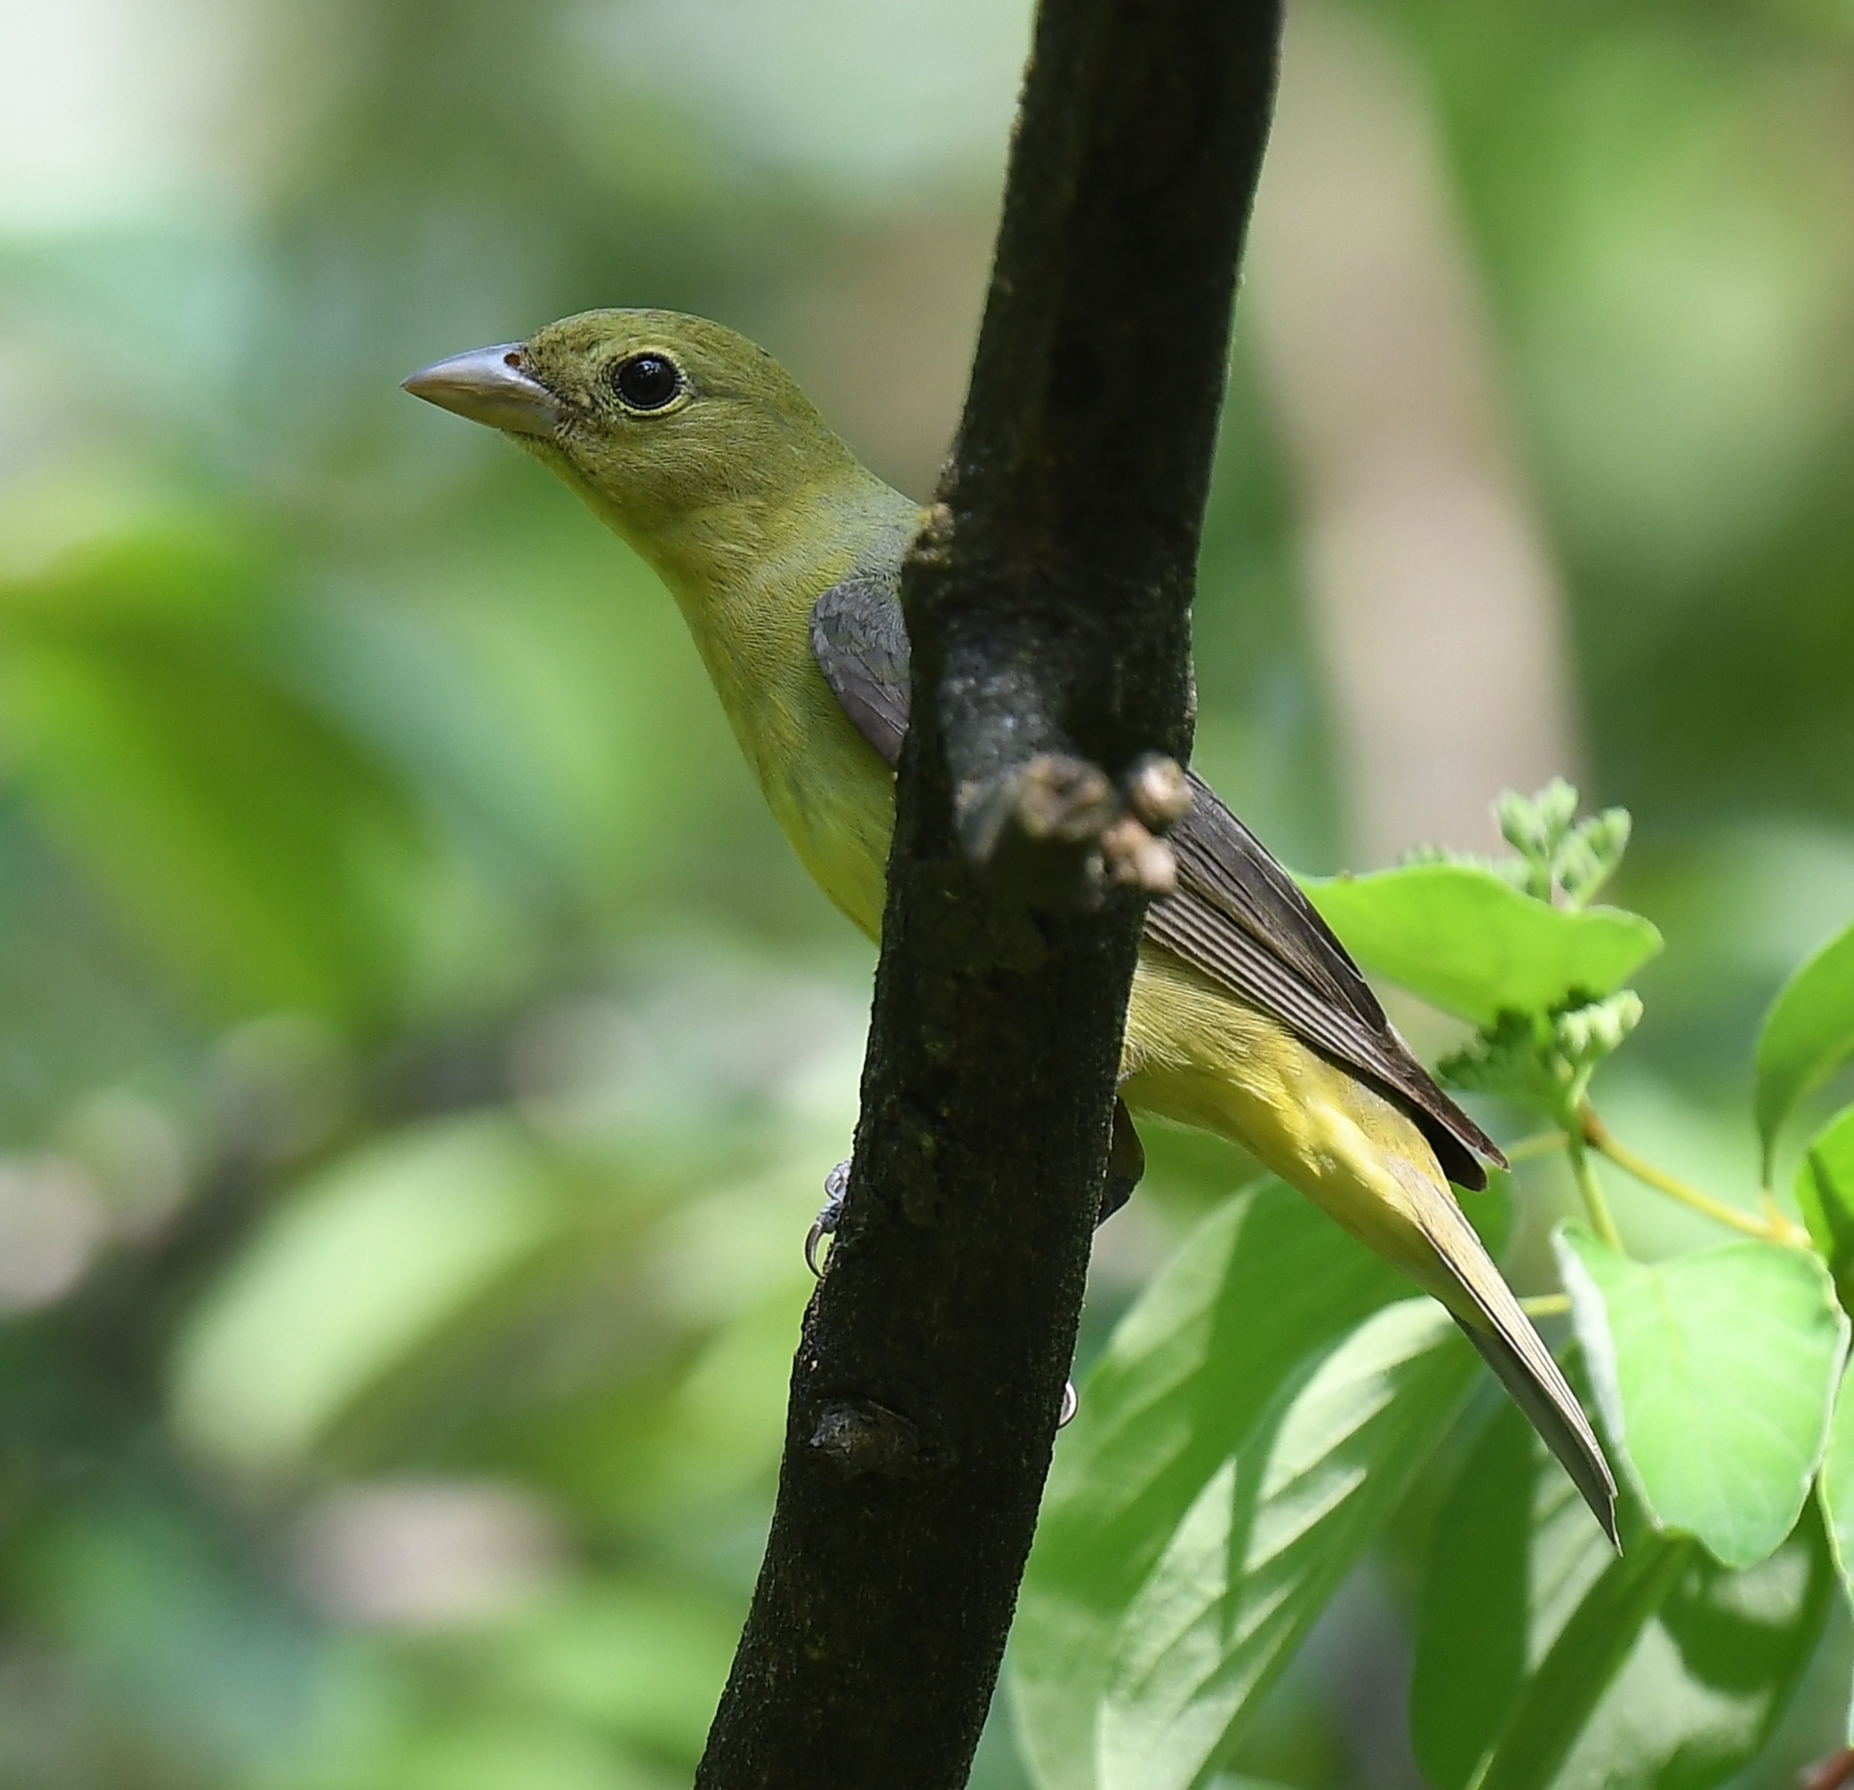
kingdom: Animalia
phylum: Chordata
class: Aves
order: Passeriformes
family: Cardinalidae
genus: Piranga
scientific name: Piranga olivacea
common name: Scarlet tanager
